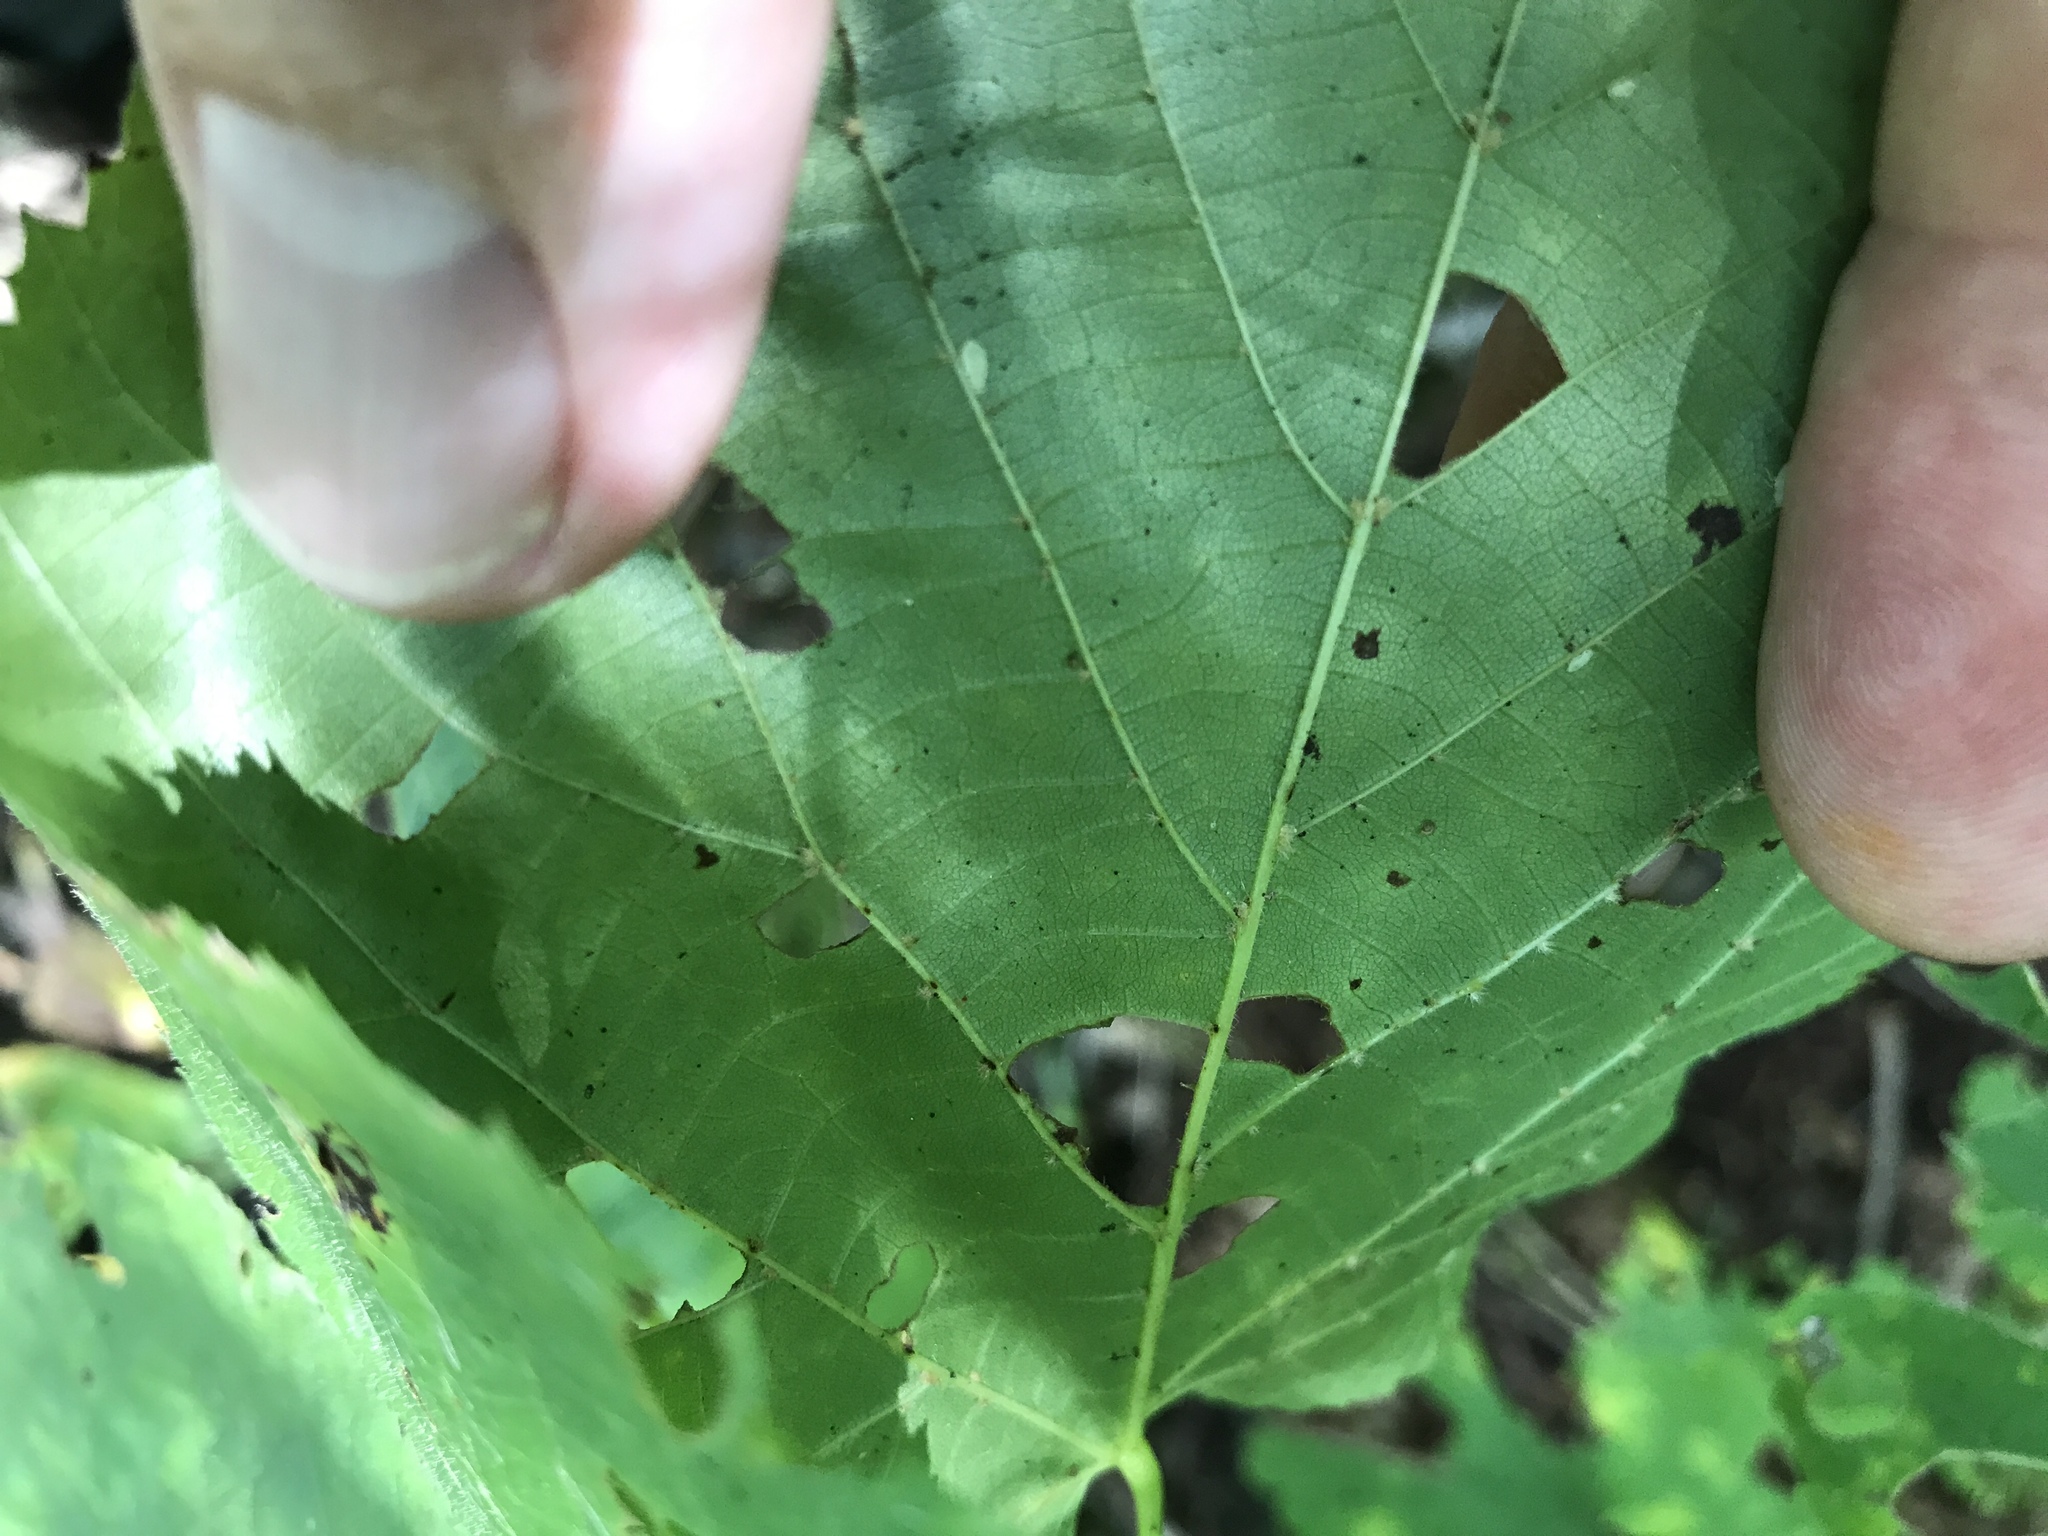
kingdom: Plantae
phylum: Tracheophyta
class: Magnoliopsida
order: Malvales
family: Malvaceae
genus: Tilia
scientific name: Tilia americana
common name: Basswood
